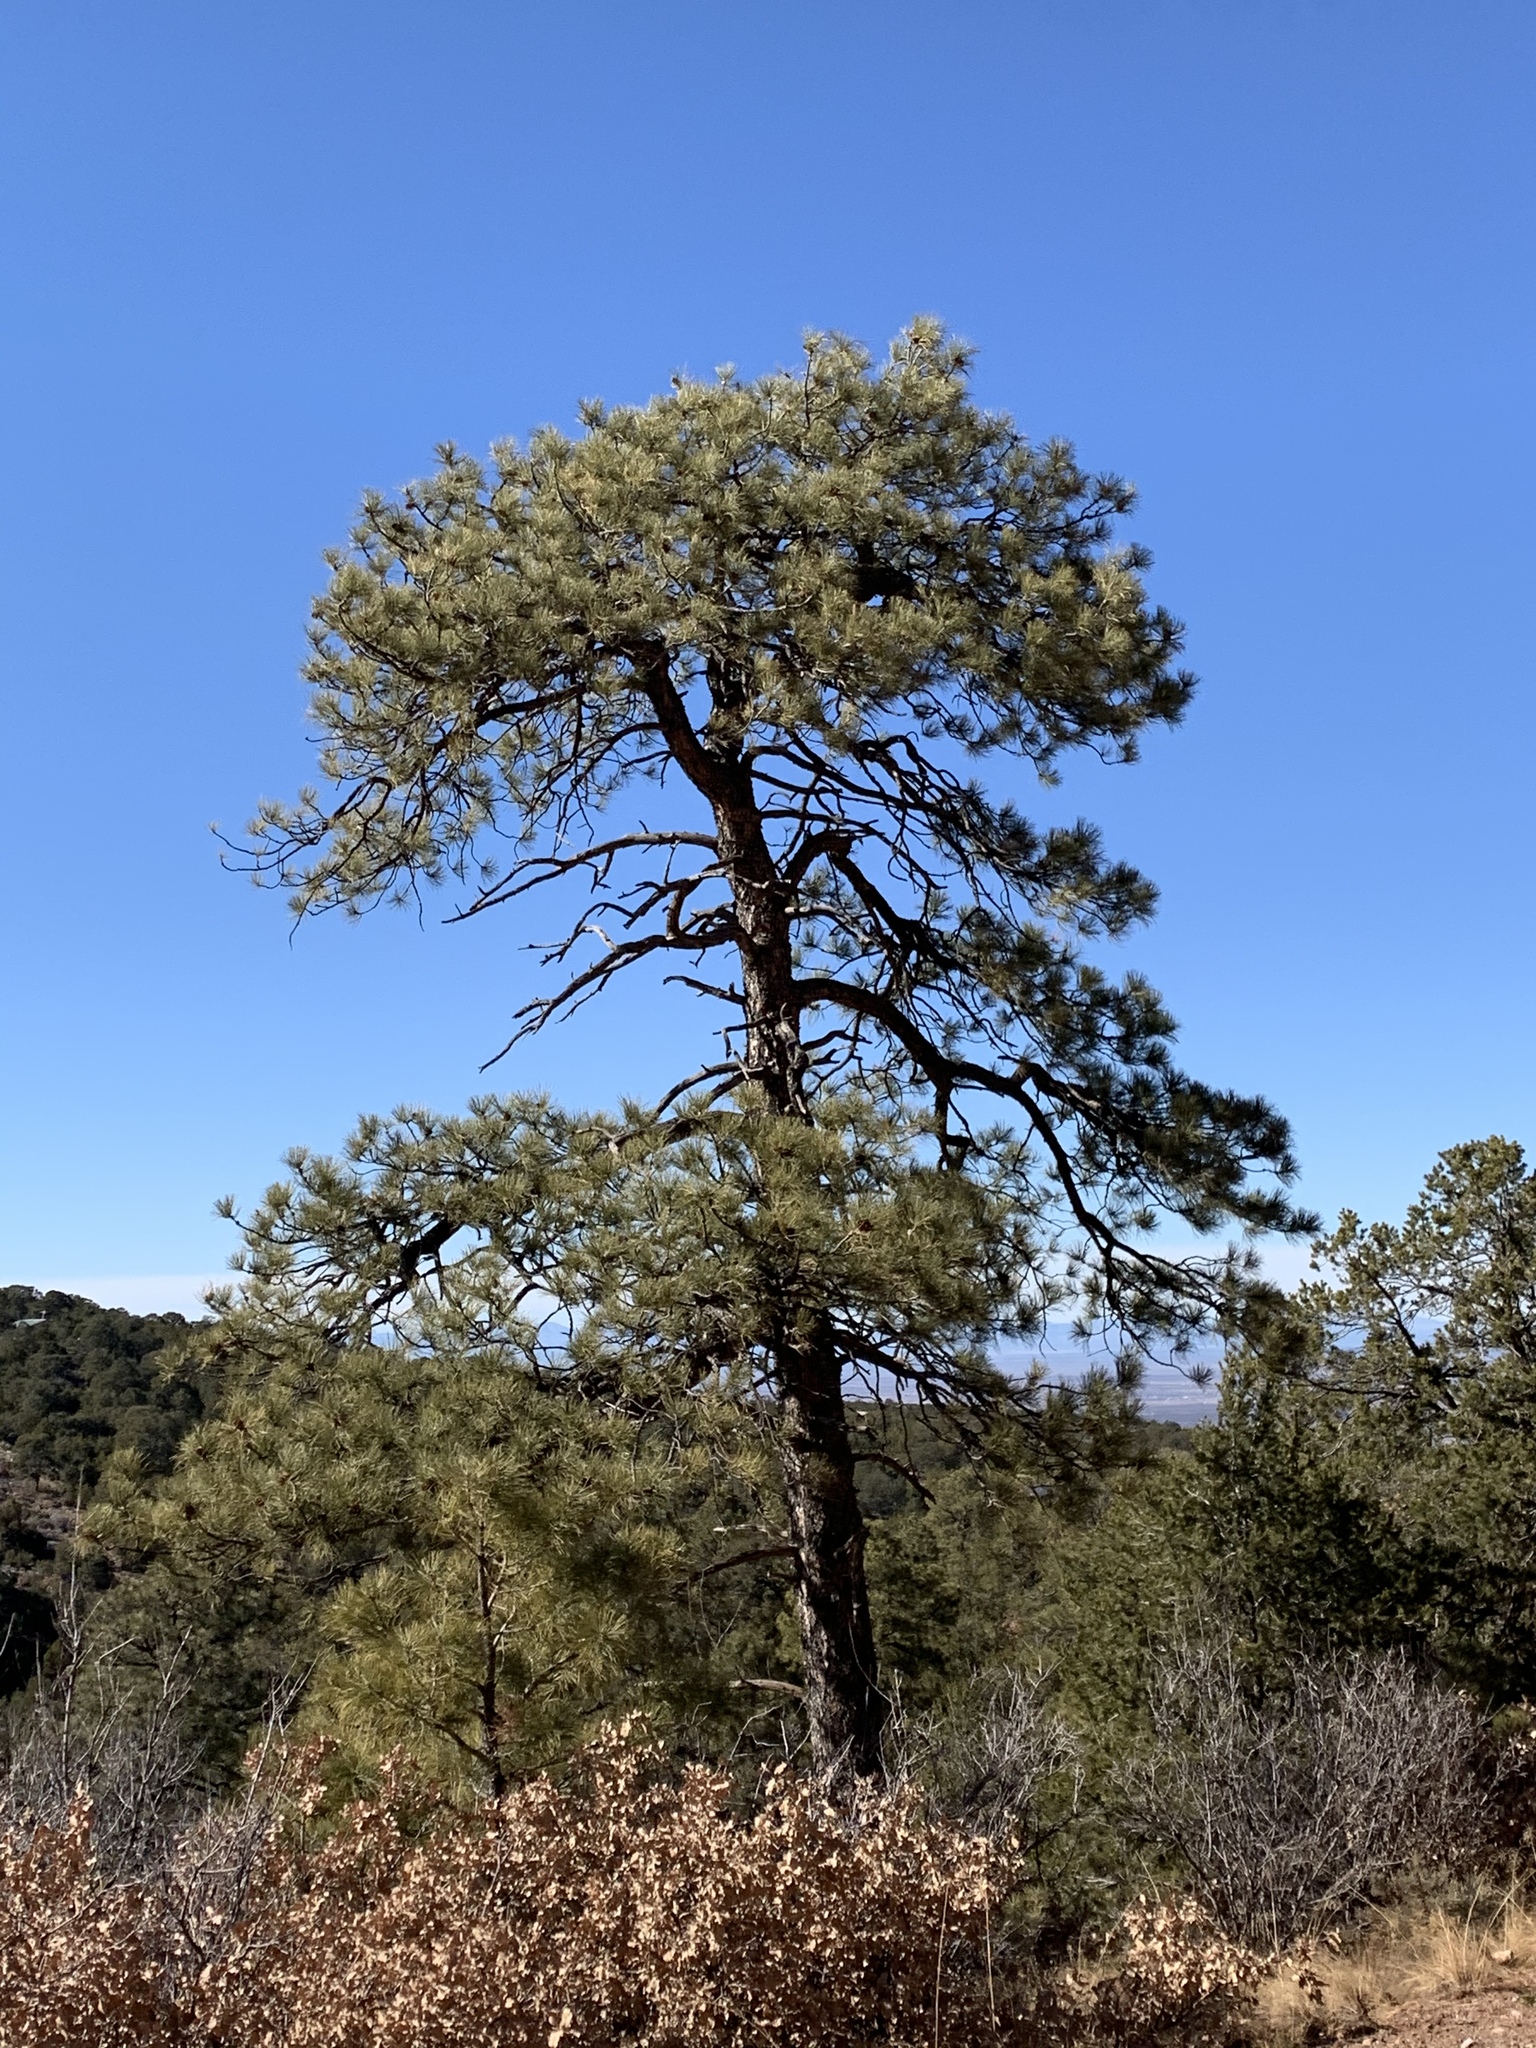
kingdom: Plantae
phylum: Tracheophyta
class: Pinopsida
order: Pinales
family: Pinaceae
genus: Pinus
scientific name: Pinus ponderosa
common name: Western yellow-pine
